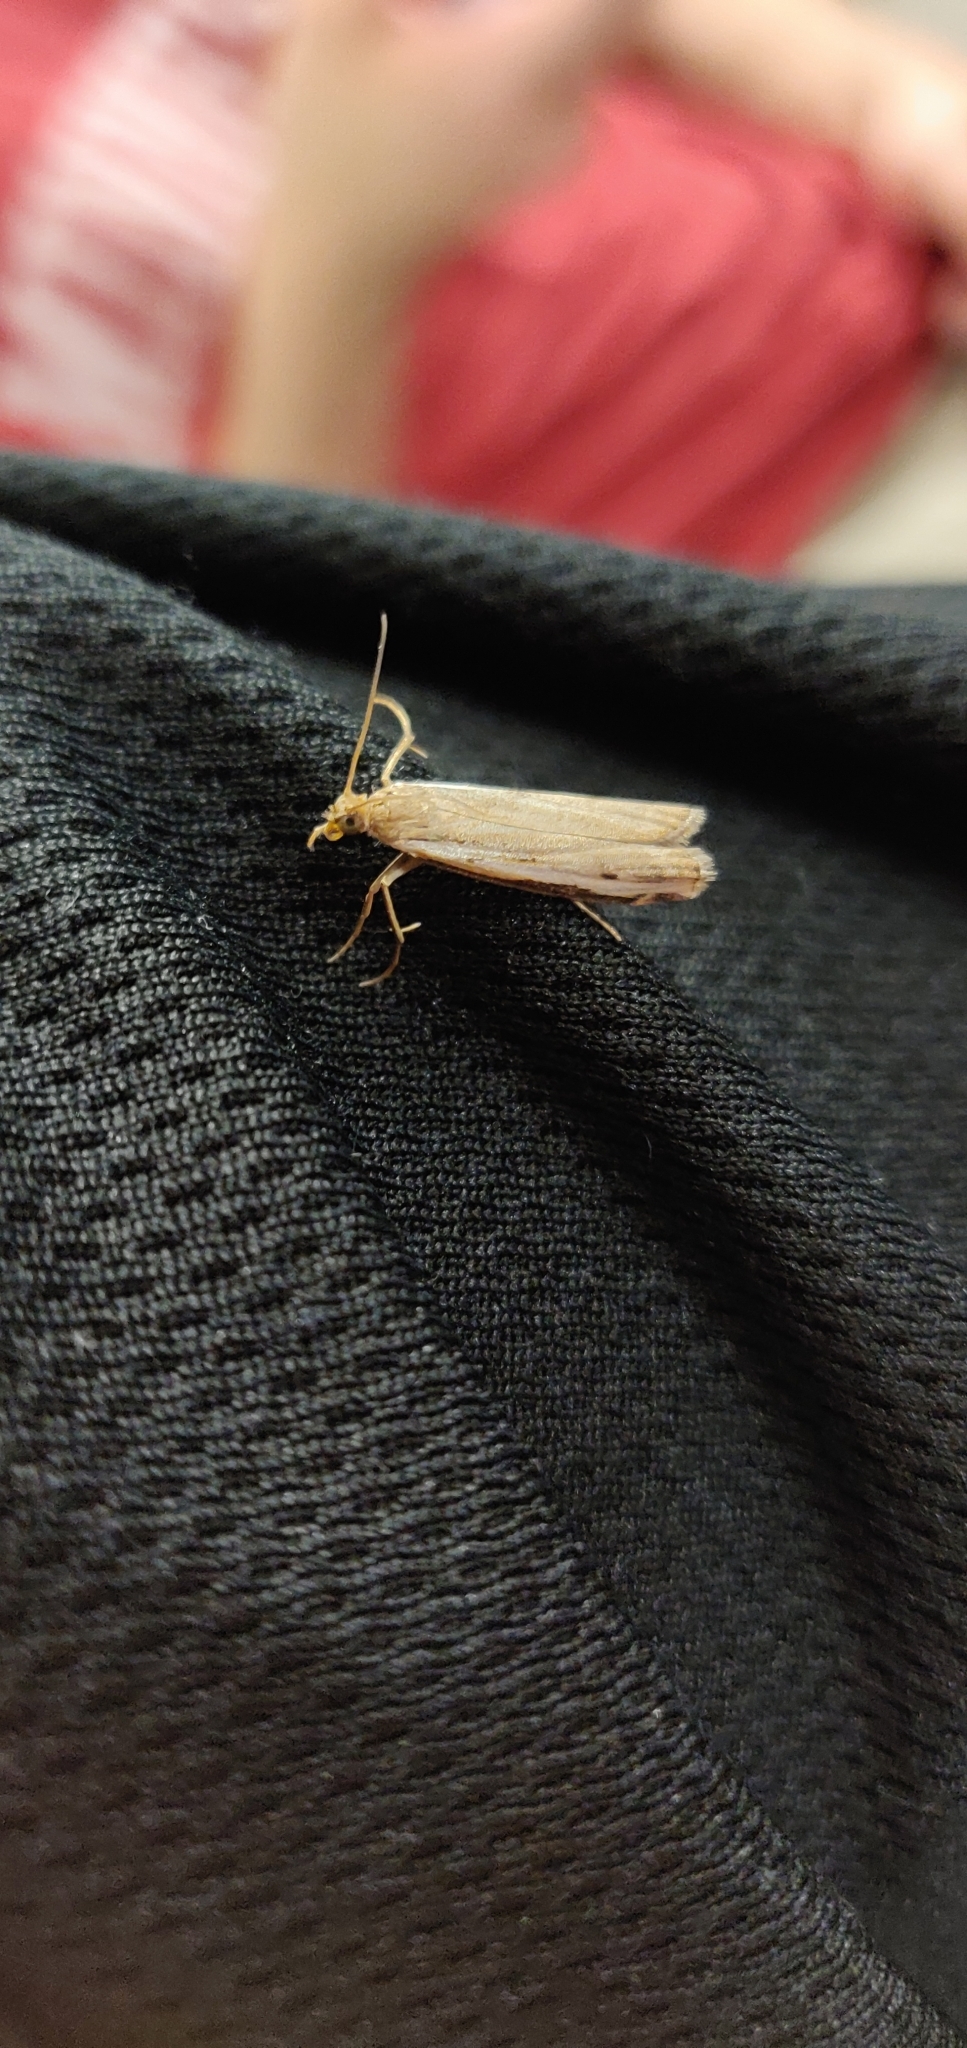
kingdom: Animalia
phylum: Arthropoda
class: Insecta
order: Lepidoptera
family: Crambidae
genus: Orocrambus
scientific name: Orocrambus flexuosellus
